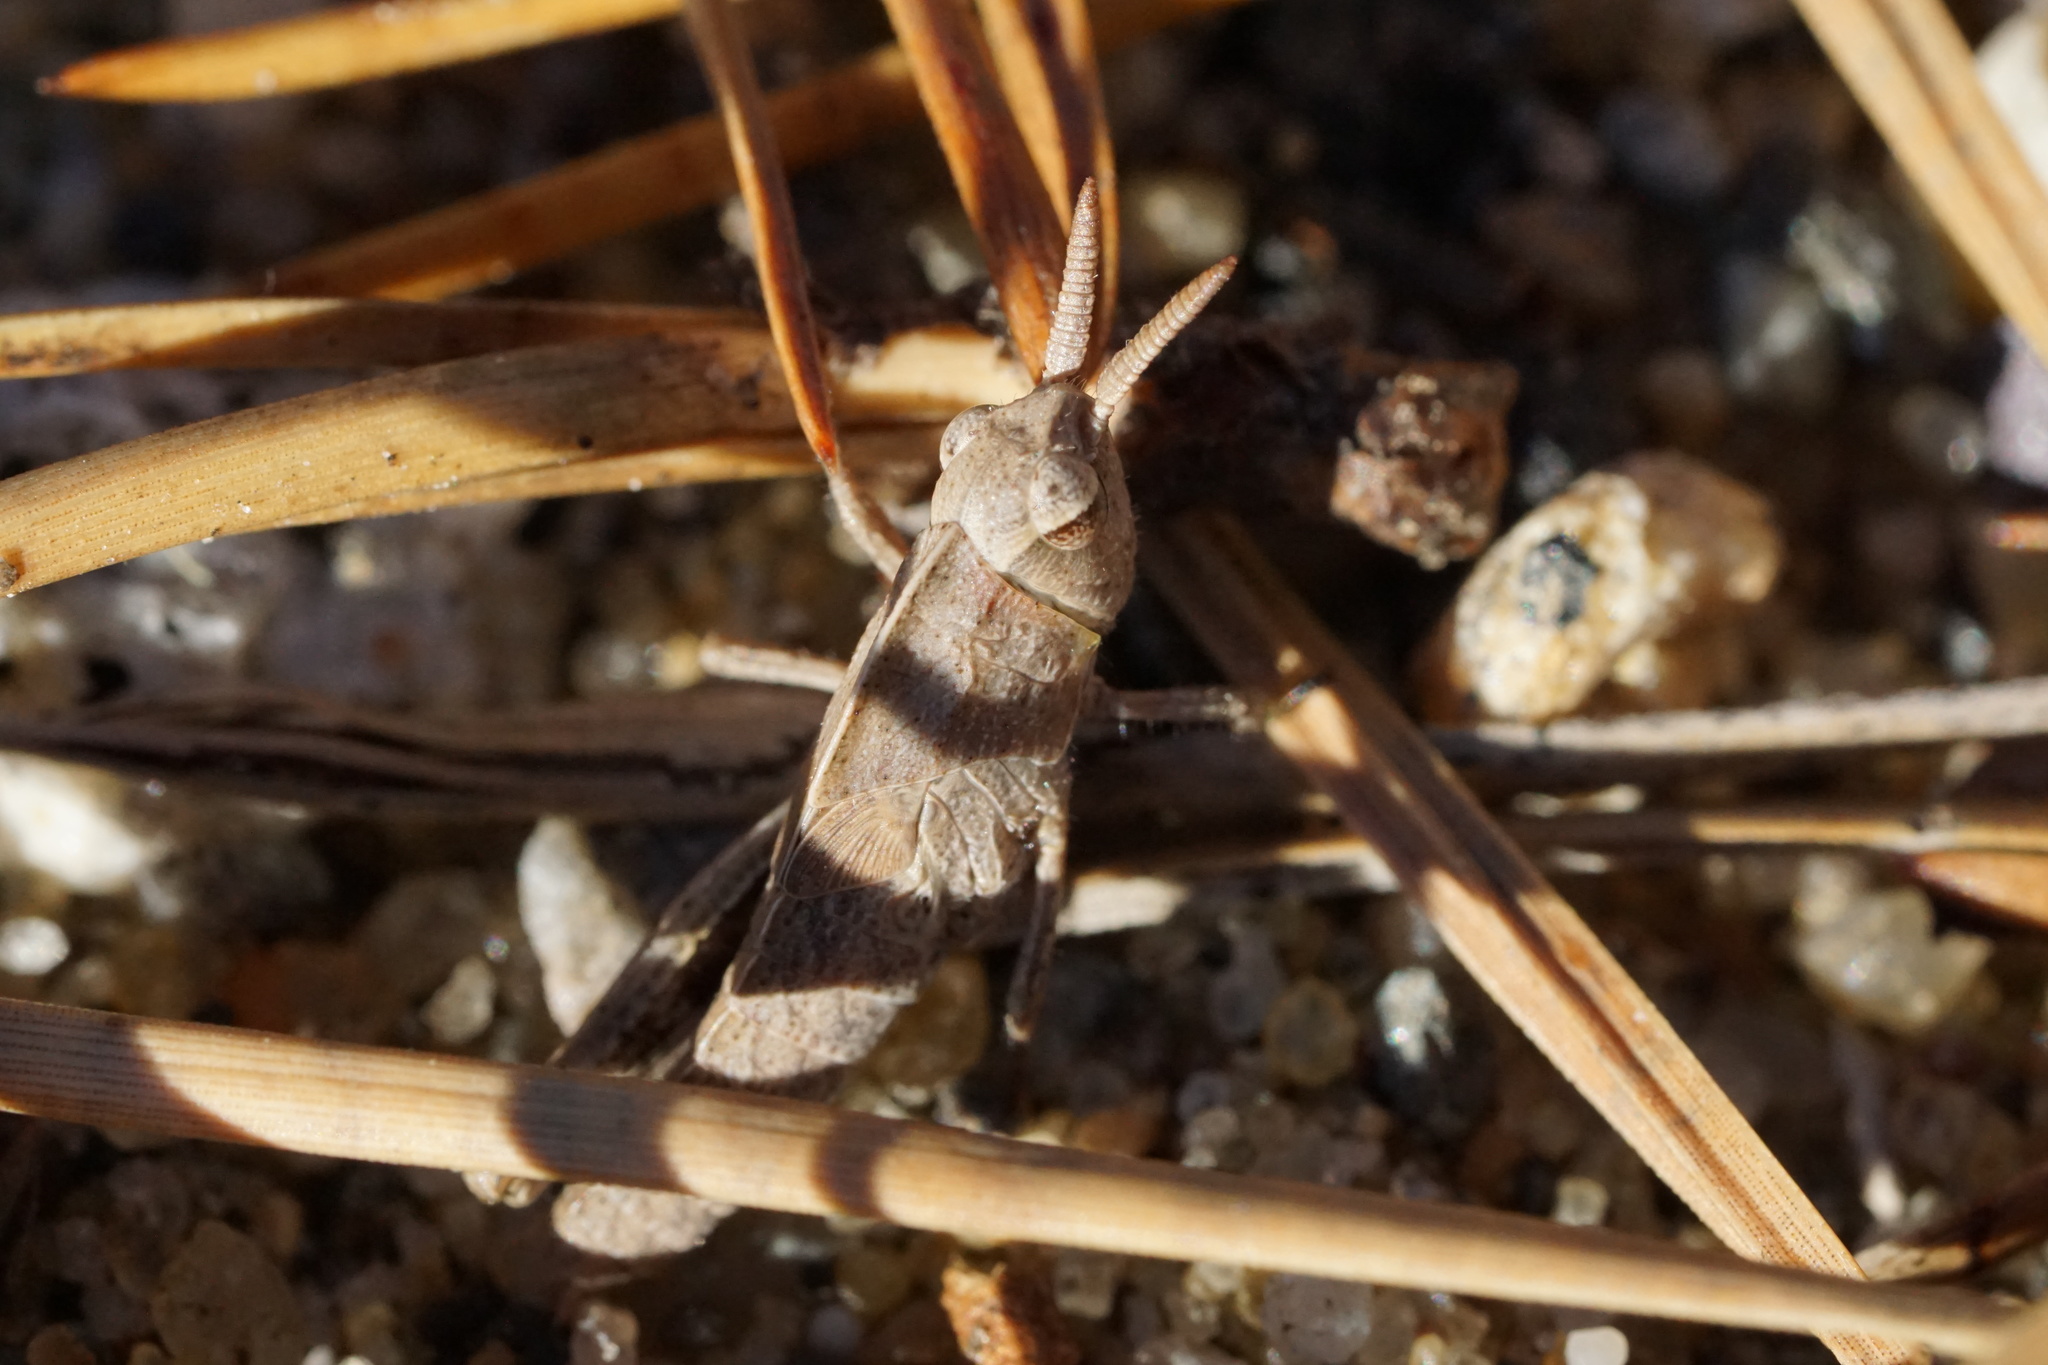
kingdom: Animalia
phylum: Arthropoda
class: Insecta
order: Orthoptera
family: Acrididae
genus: Chortophaga
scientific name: Chortophaga viridifasciata
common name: Green-striped grasshopper
